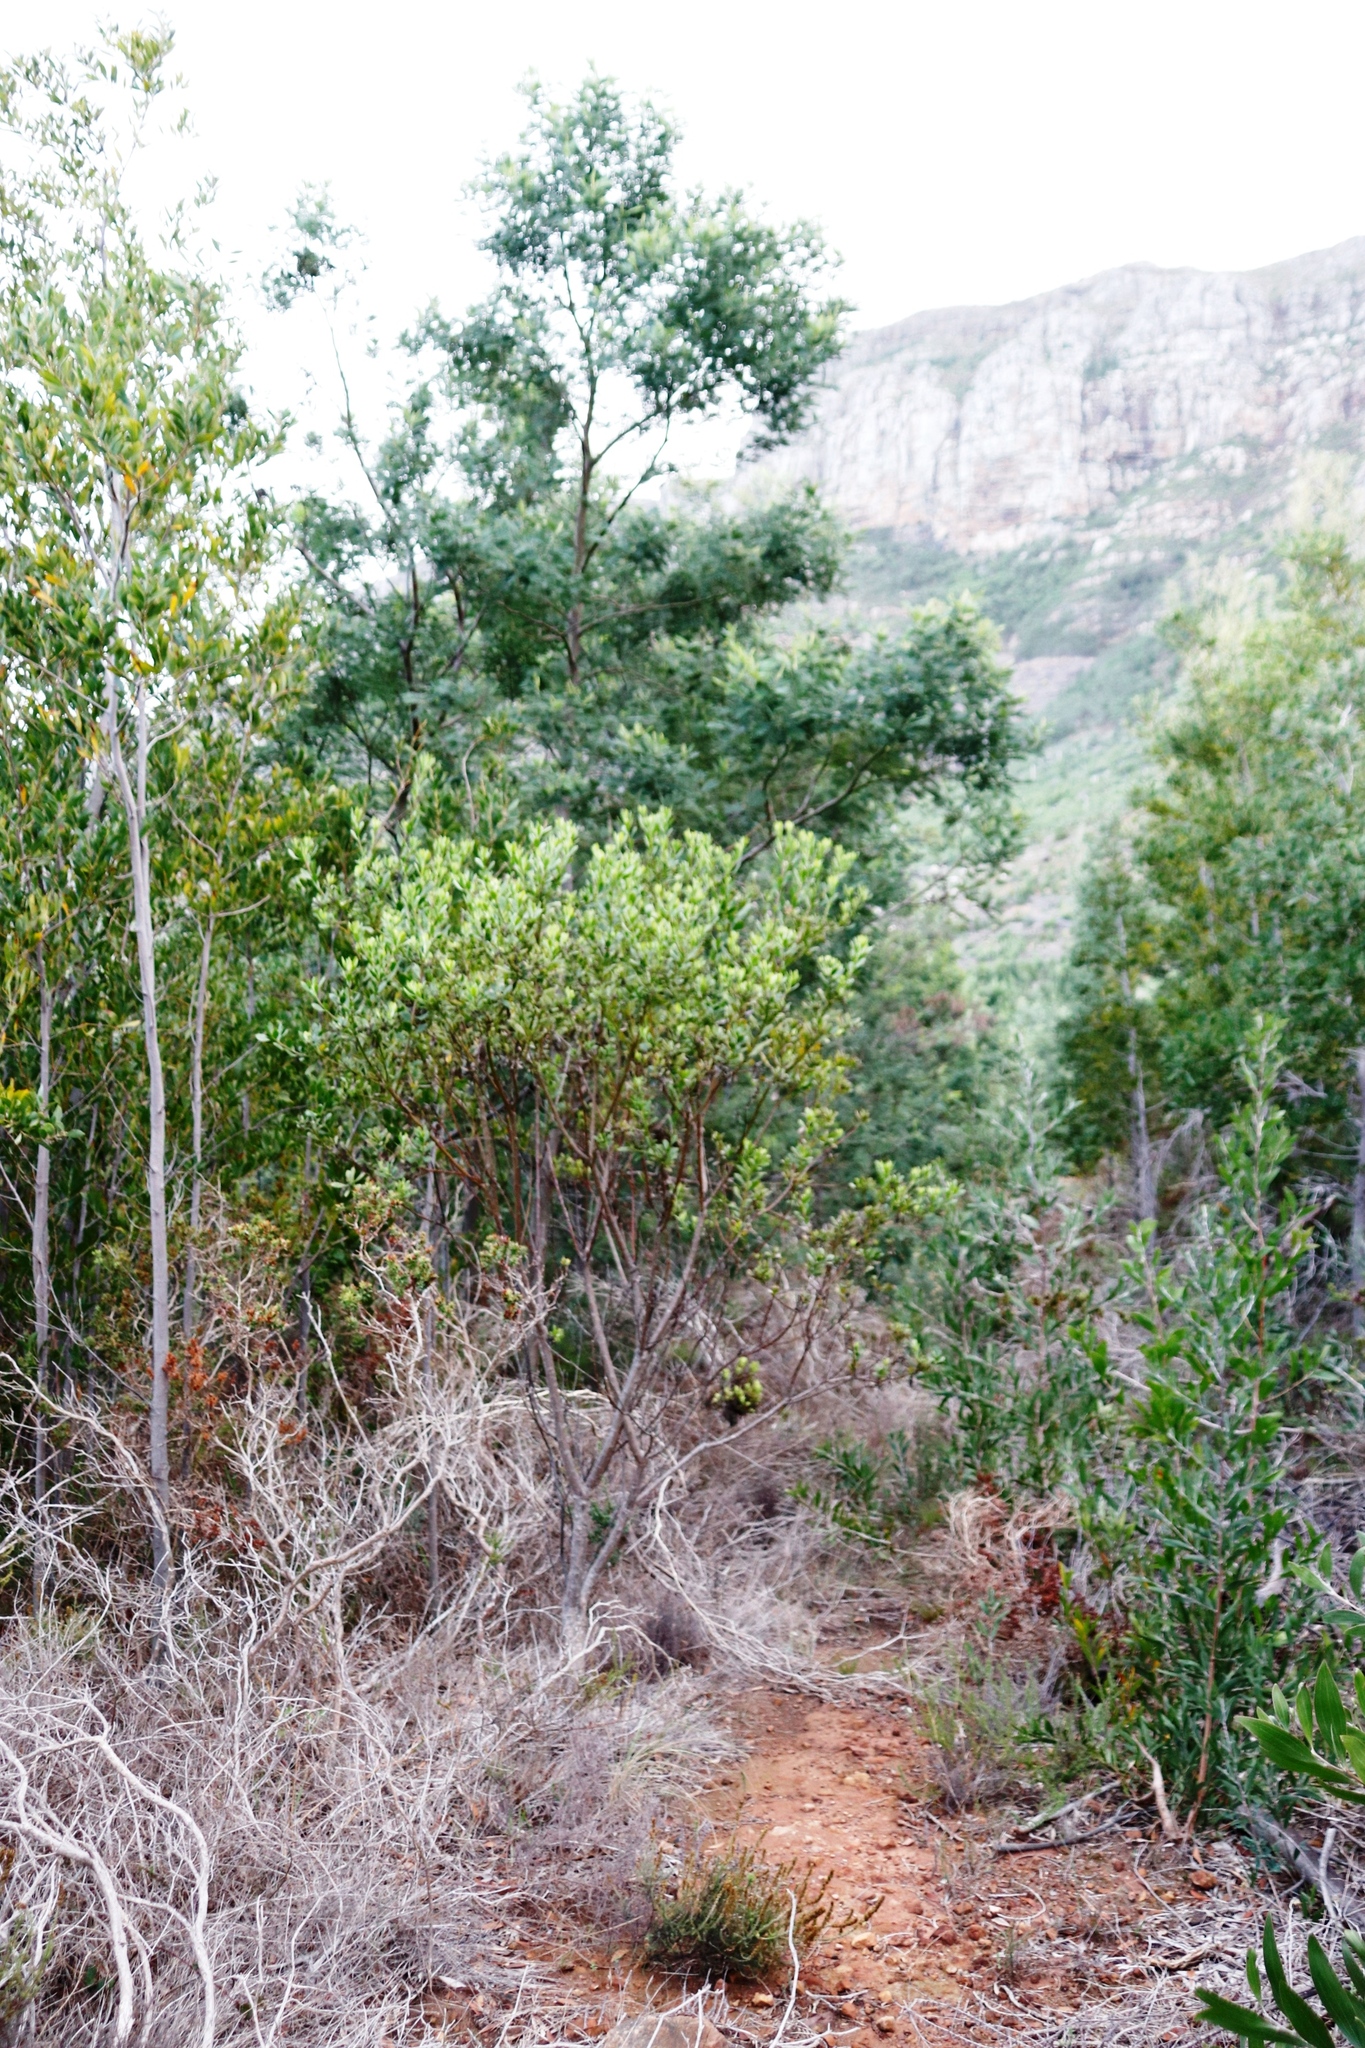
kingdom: Plantae
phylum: Tracheophyta
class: Magnoliopsida
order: Asterales
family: Asteraceae
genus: Osteospermum
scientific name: Osteospermum moniliferum
